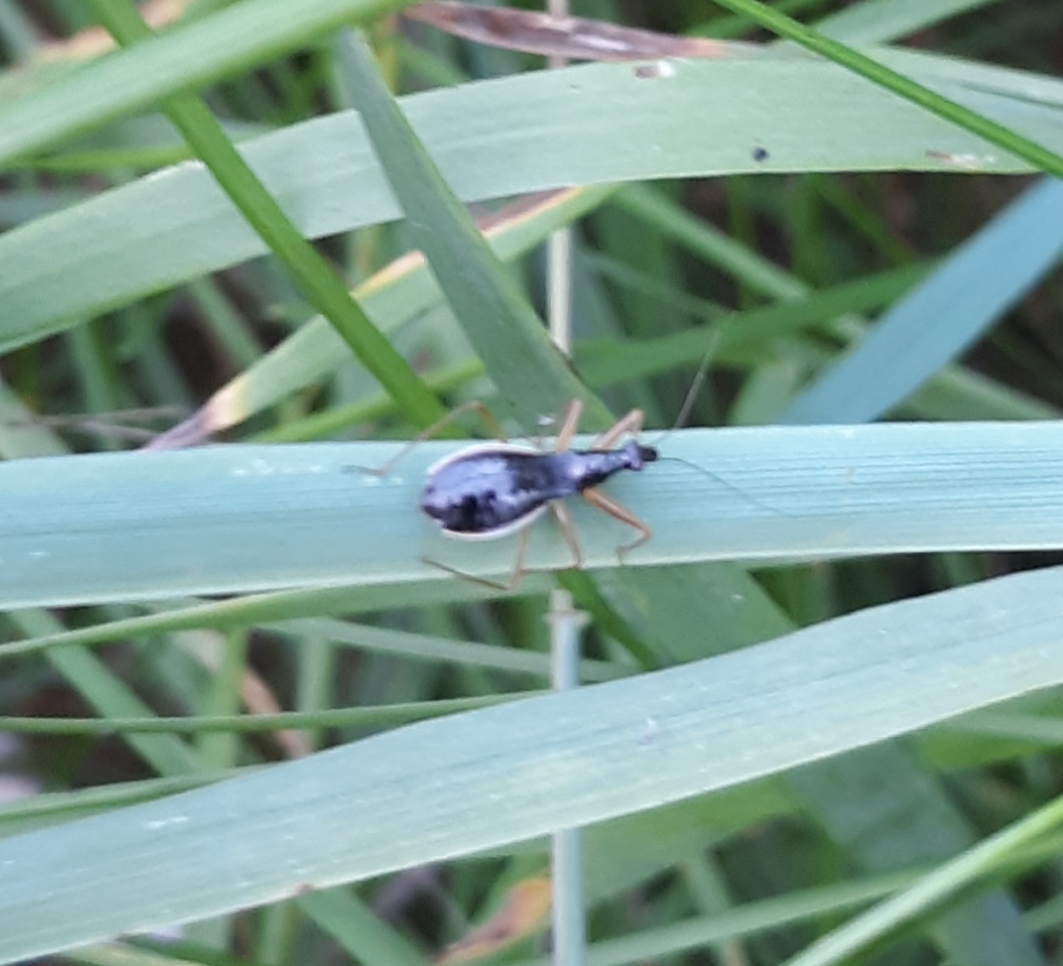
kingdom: Animalia
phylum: Arthropoda
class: Insecta
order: Hemiptera
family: Nabidae
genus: Nabis
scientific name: Nabis
